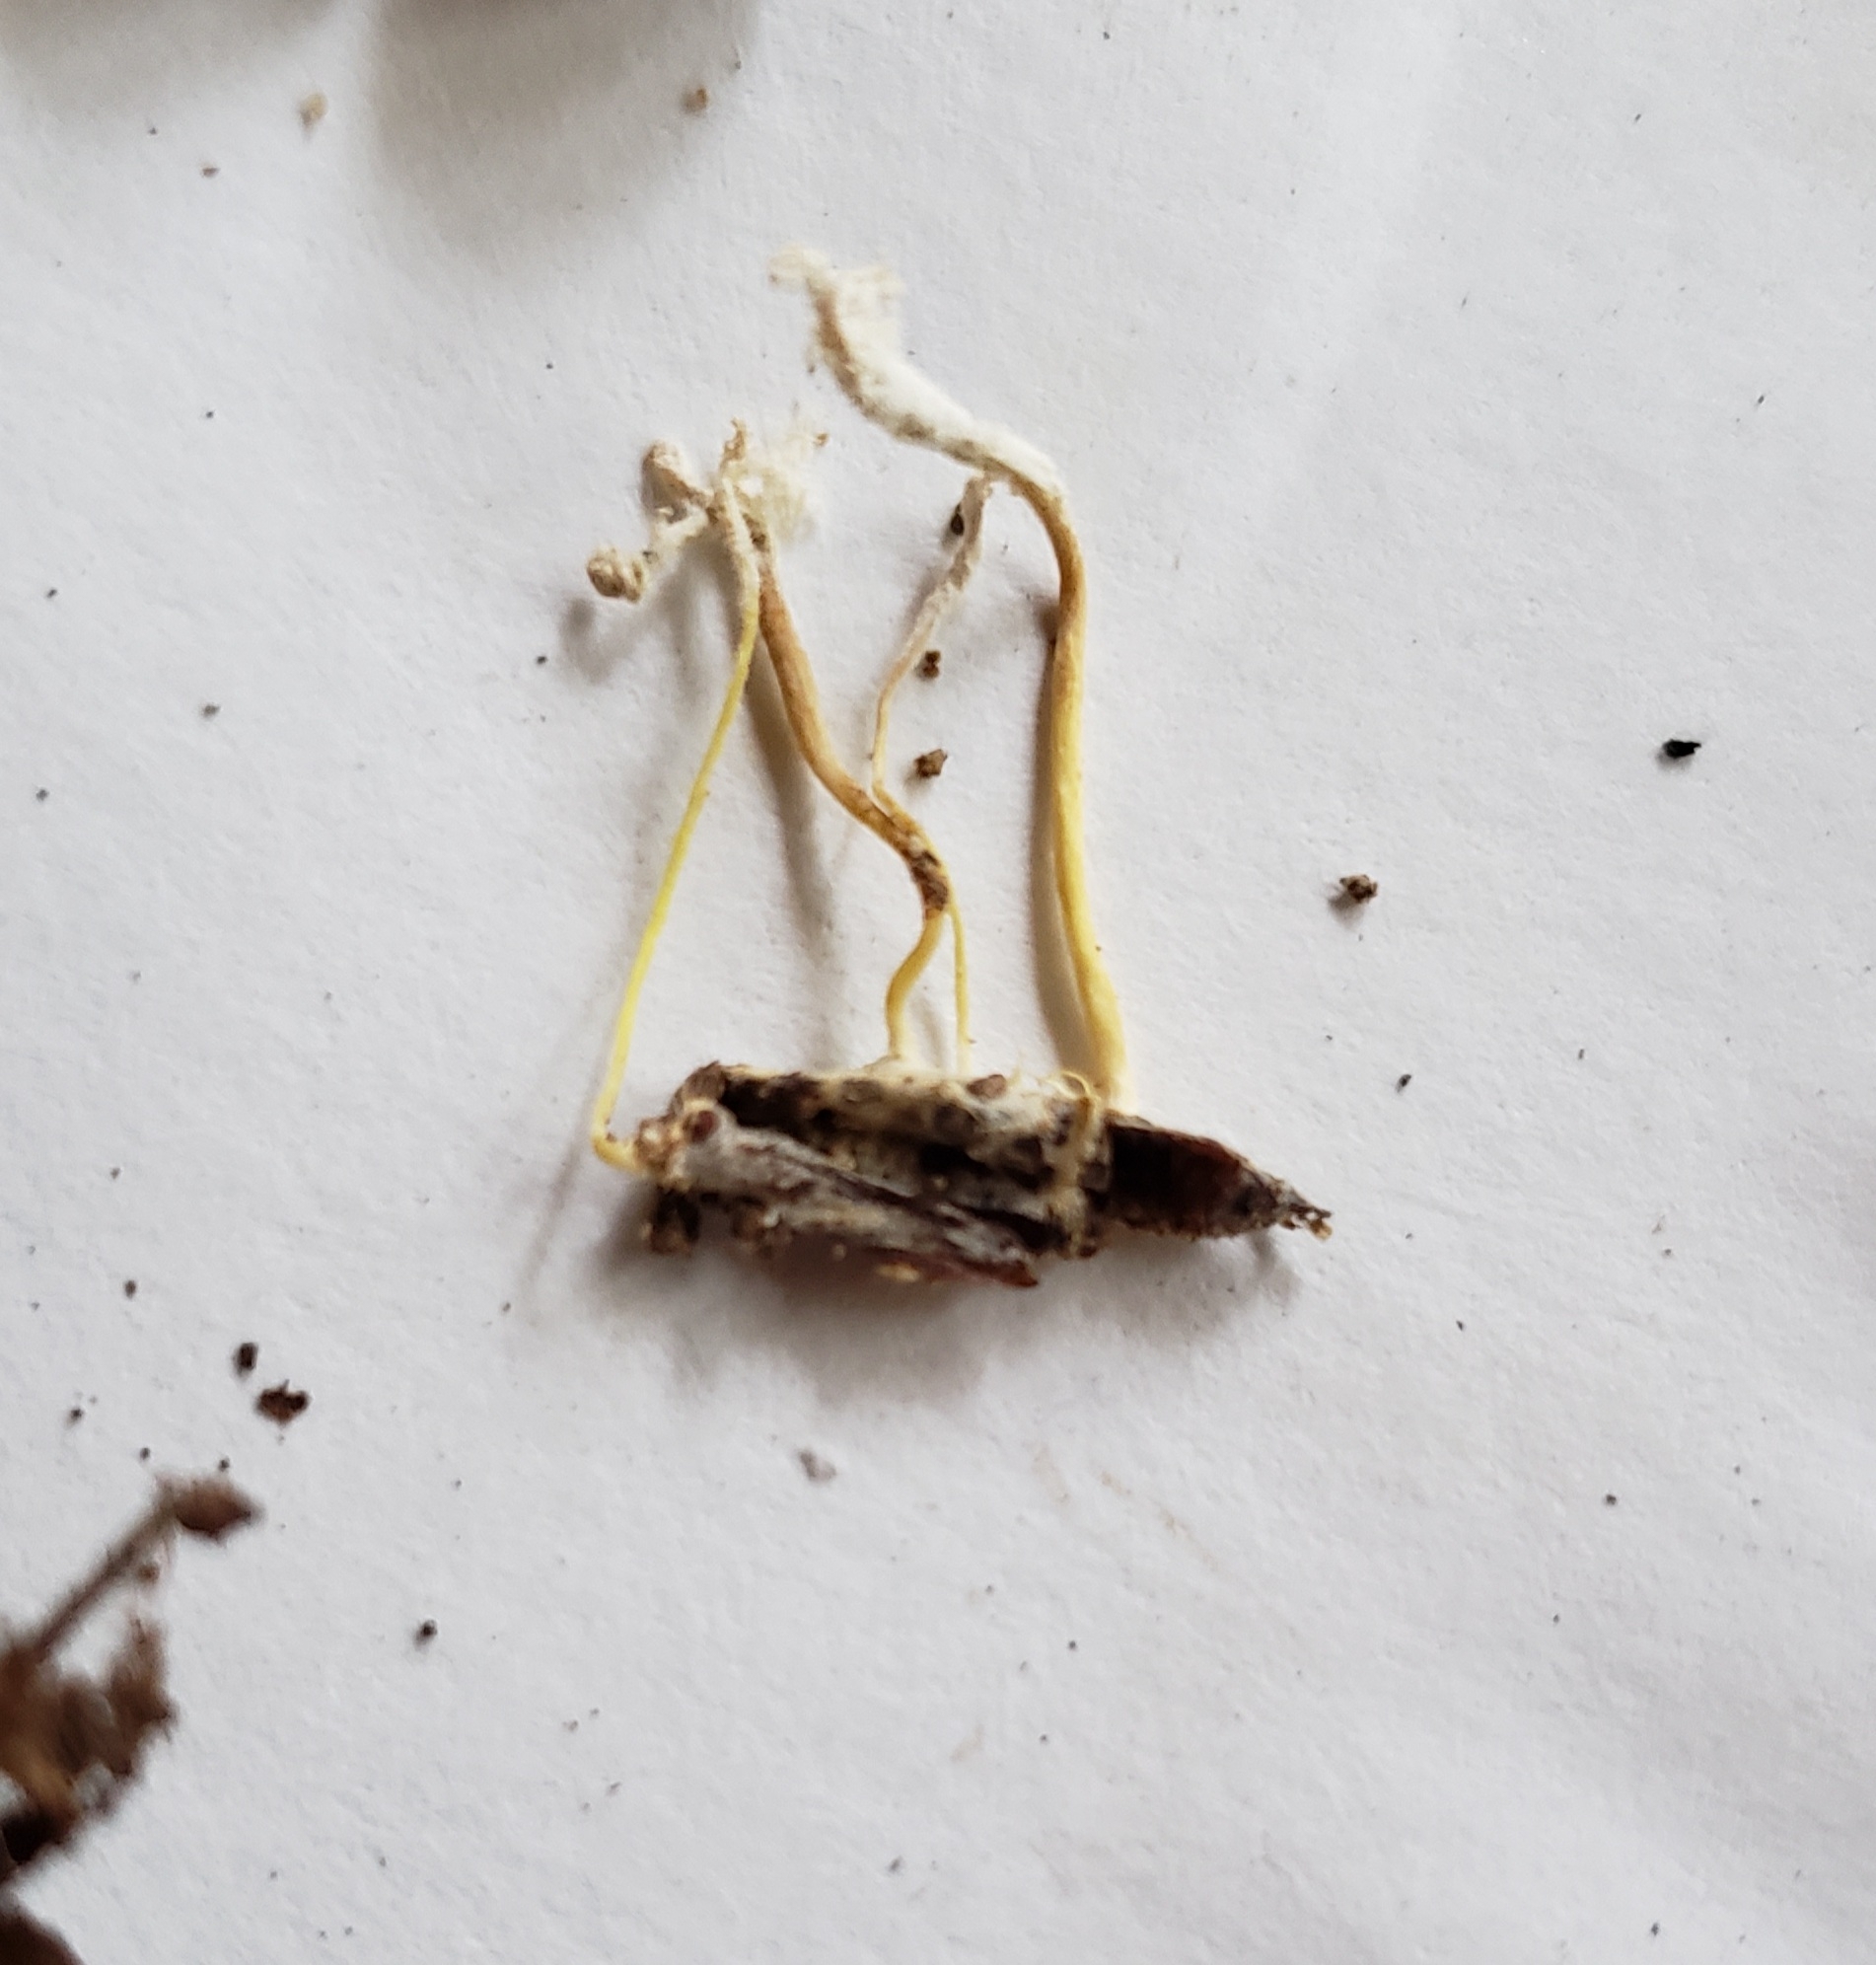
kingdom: Fungi
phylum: Ascomycota
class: Sordariomycetes
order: Hypocreales
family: Cordycipitaceae
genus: Cordyceps
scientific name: Cordyceps tenuipes
